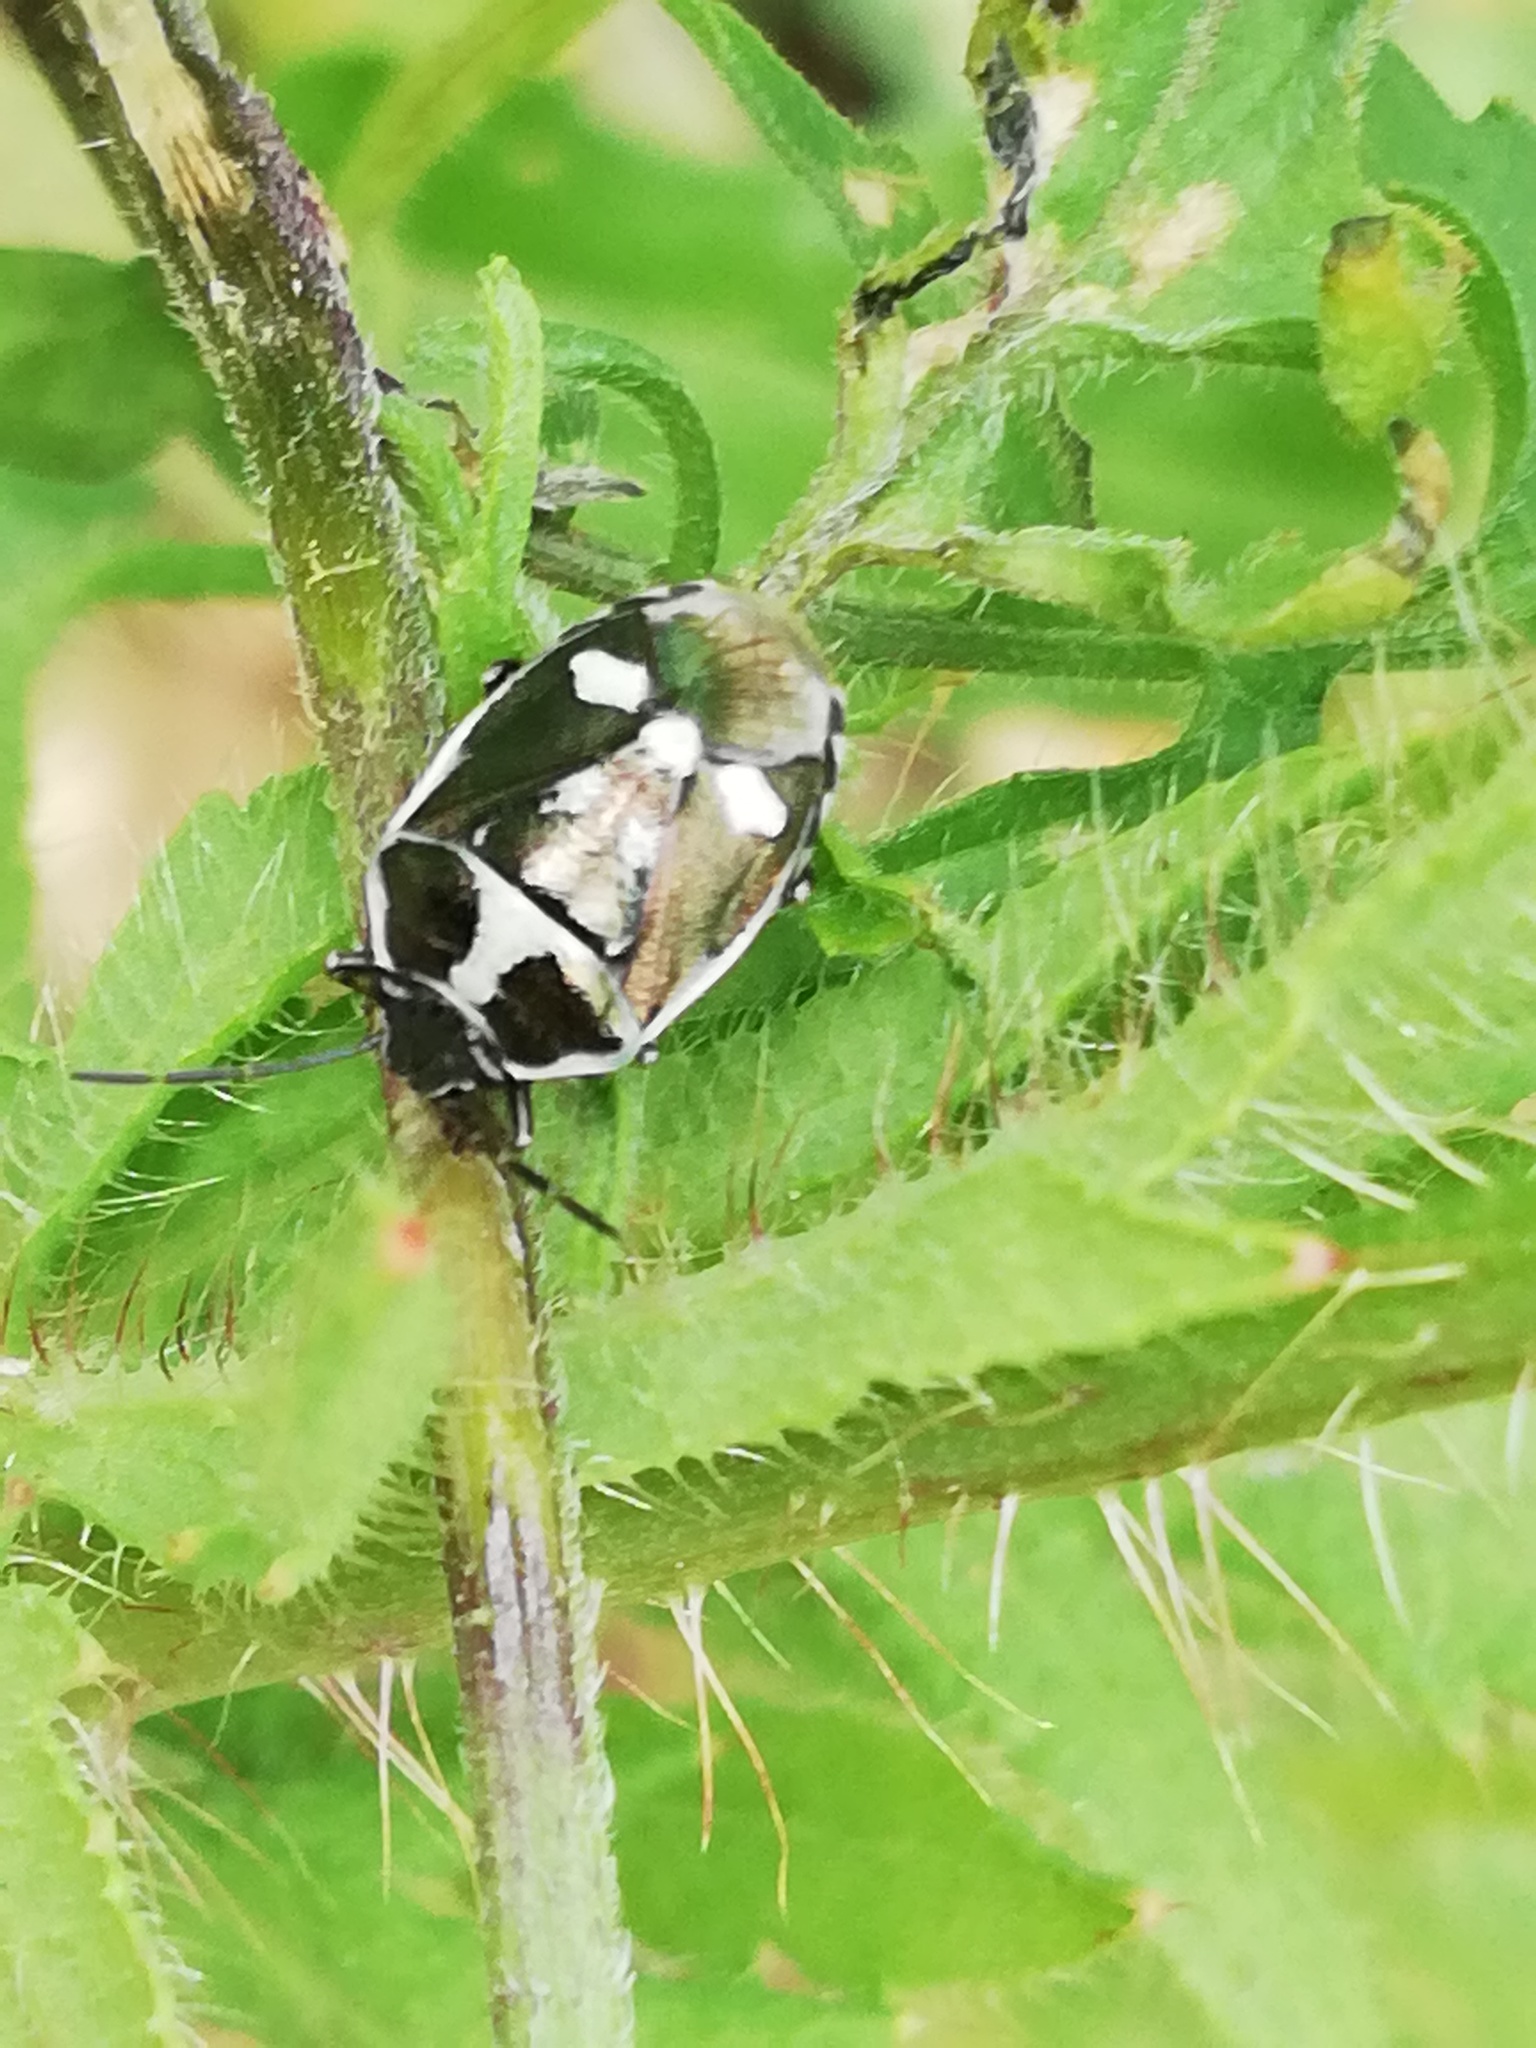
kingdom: Animalia
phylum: Arthropoda
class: Insecta
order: Hemiptera
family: Pentatomidae
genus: Eurydema
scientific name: Eurydema oleracea
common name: Cabbage bug
